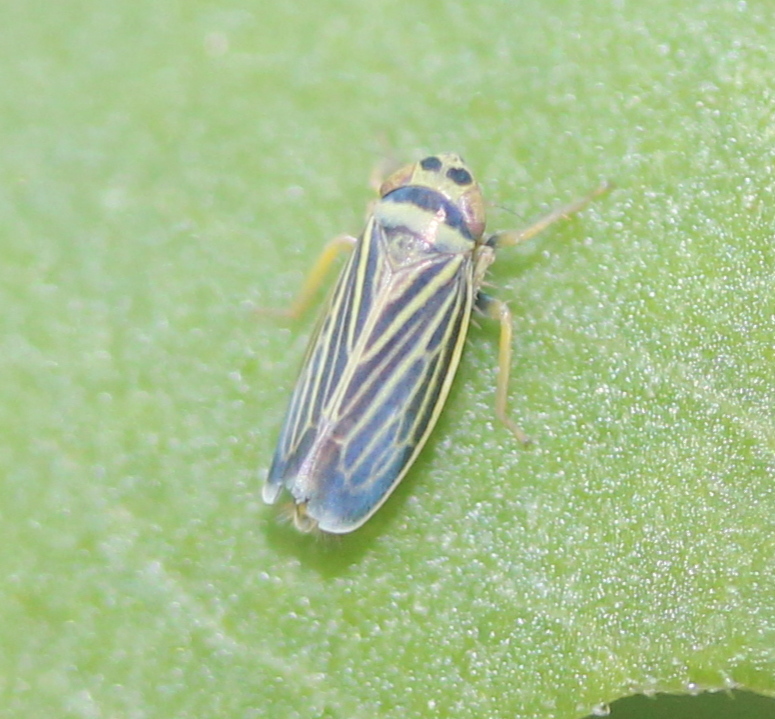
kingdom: Animalia
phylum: Arthropoda
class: Insecta
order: Hemiptera
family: Cicadellidae
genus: Amblysellus
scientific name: Amblysellus curtisii
